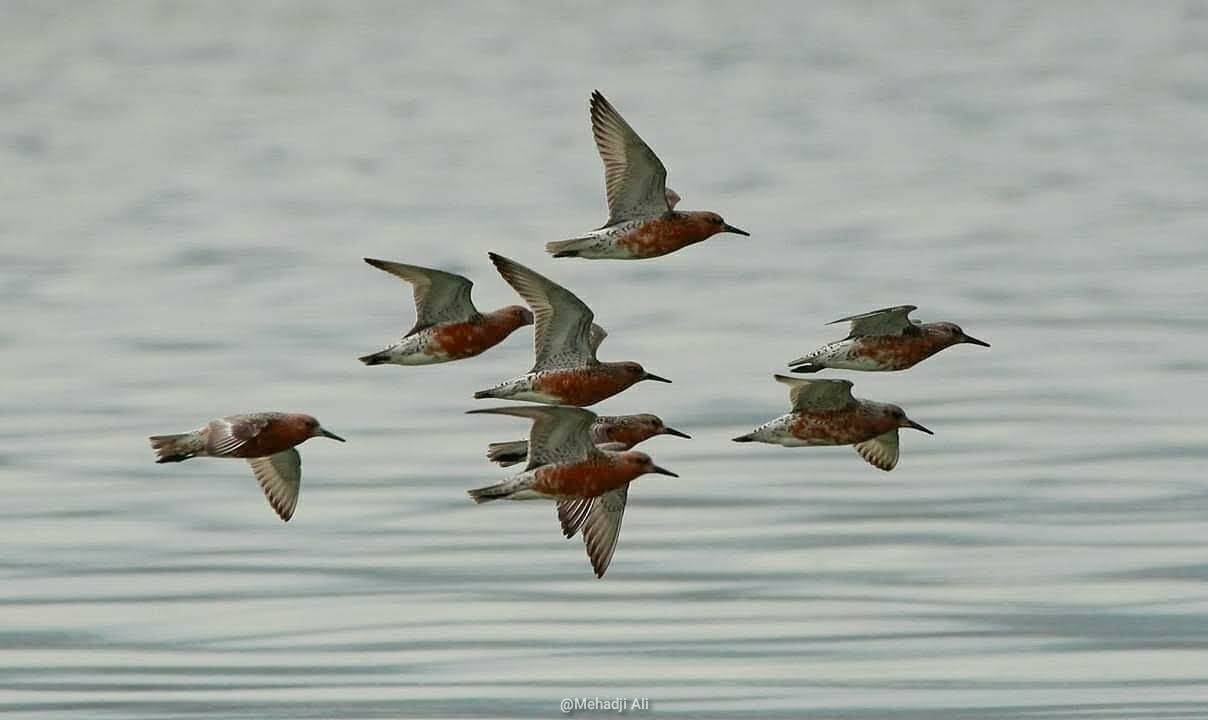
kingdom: Animalia
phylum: Chordata
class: Aves
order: Charadriiformes
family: Scolopacidae
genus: Calidris
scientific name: Calidris canutus
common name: Red knot
